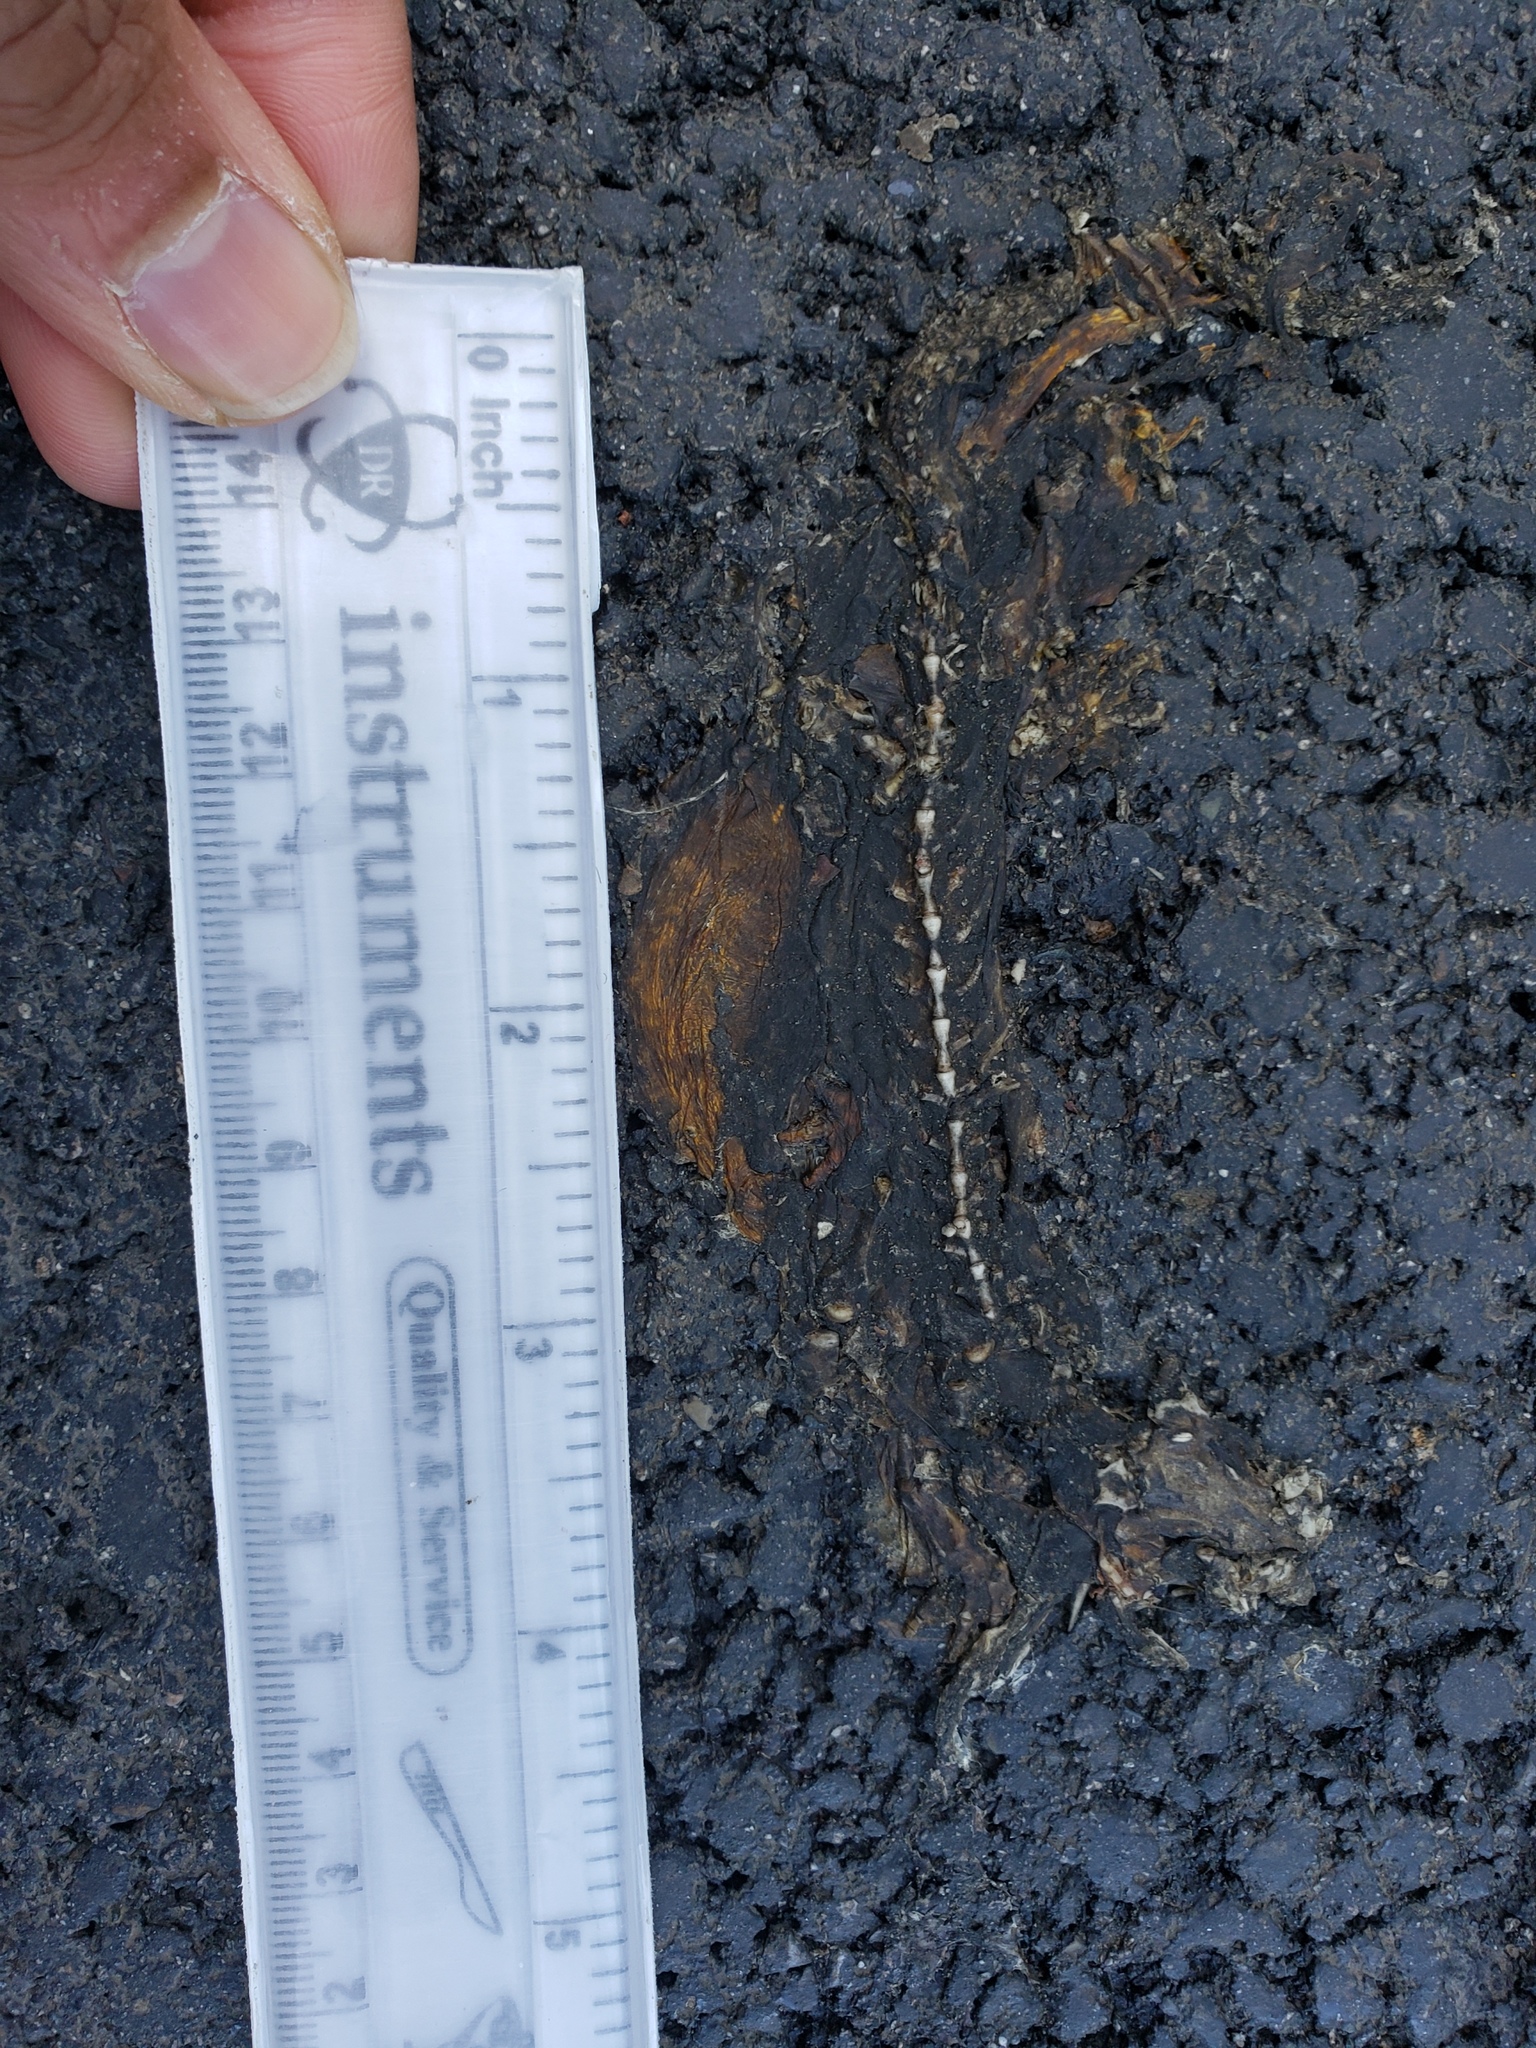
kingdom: Animalia
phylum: Chordata
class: Amphibia
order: Caudata
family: Salamandridae
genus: Taricha
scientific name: Taricha
